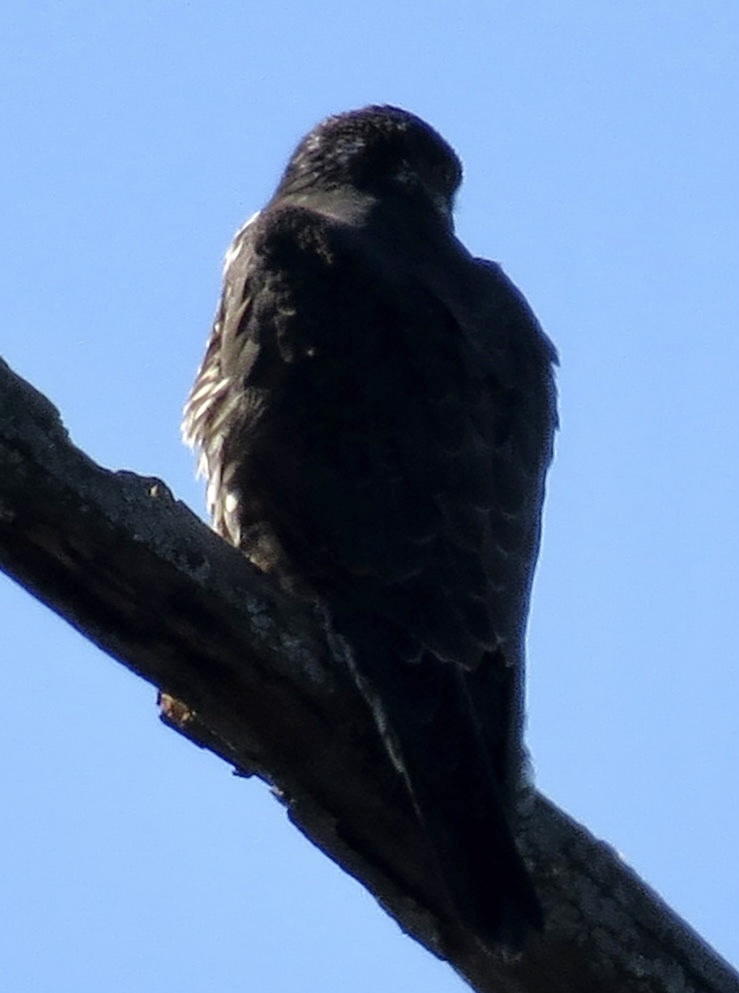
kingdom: Animalia
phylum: Chordata
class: Aves
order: Falconiformes
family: Falconidae
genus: Falco
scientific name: Falco peregrinus
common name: Peregrine falcon
